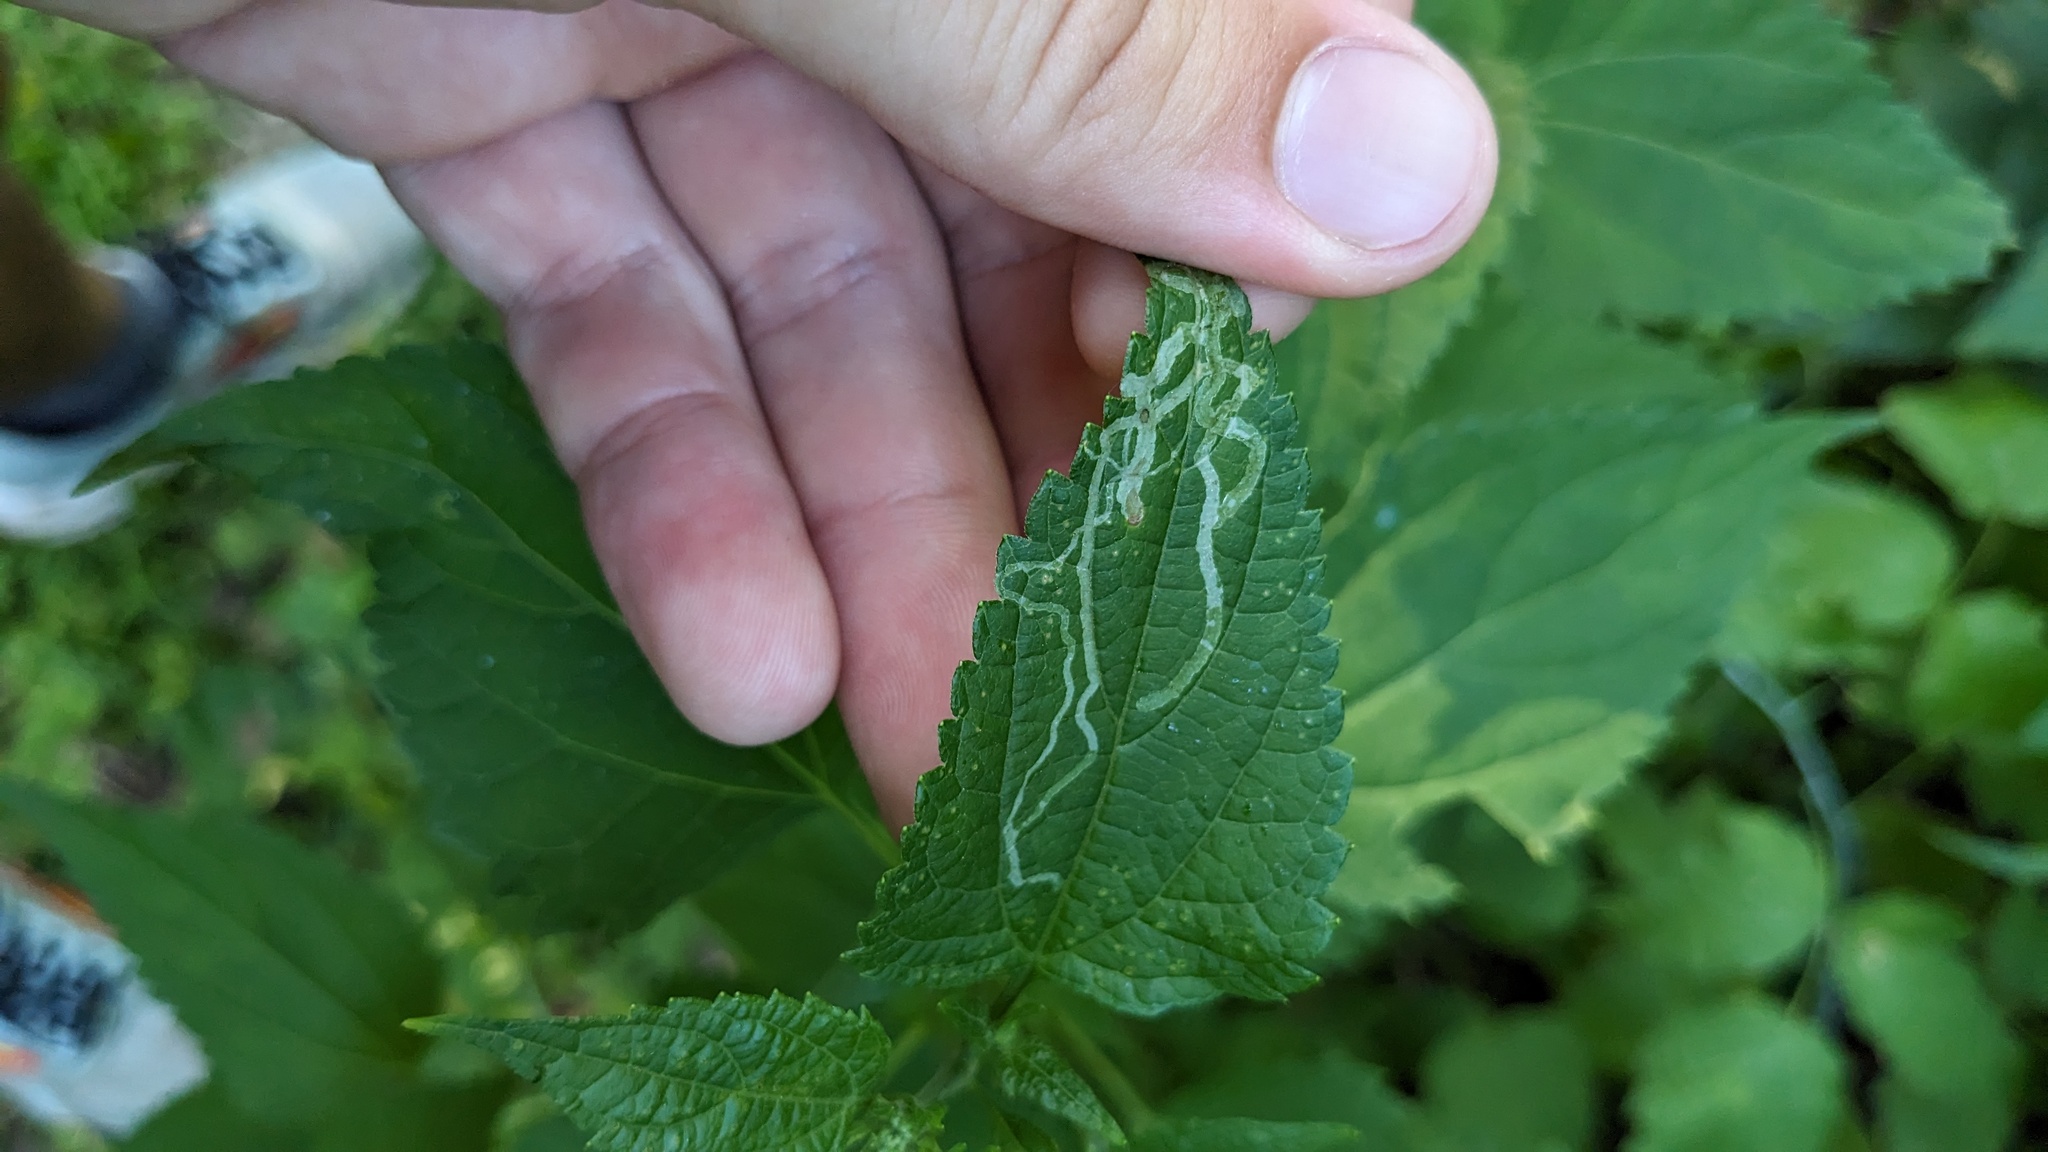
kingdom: Animalia
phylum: Arthropoda
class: Insecta
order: Diptera
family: Agromyzidae
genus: Liriomyza
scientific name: Liriomyza
